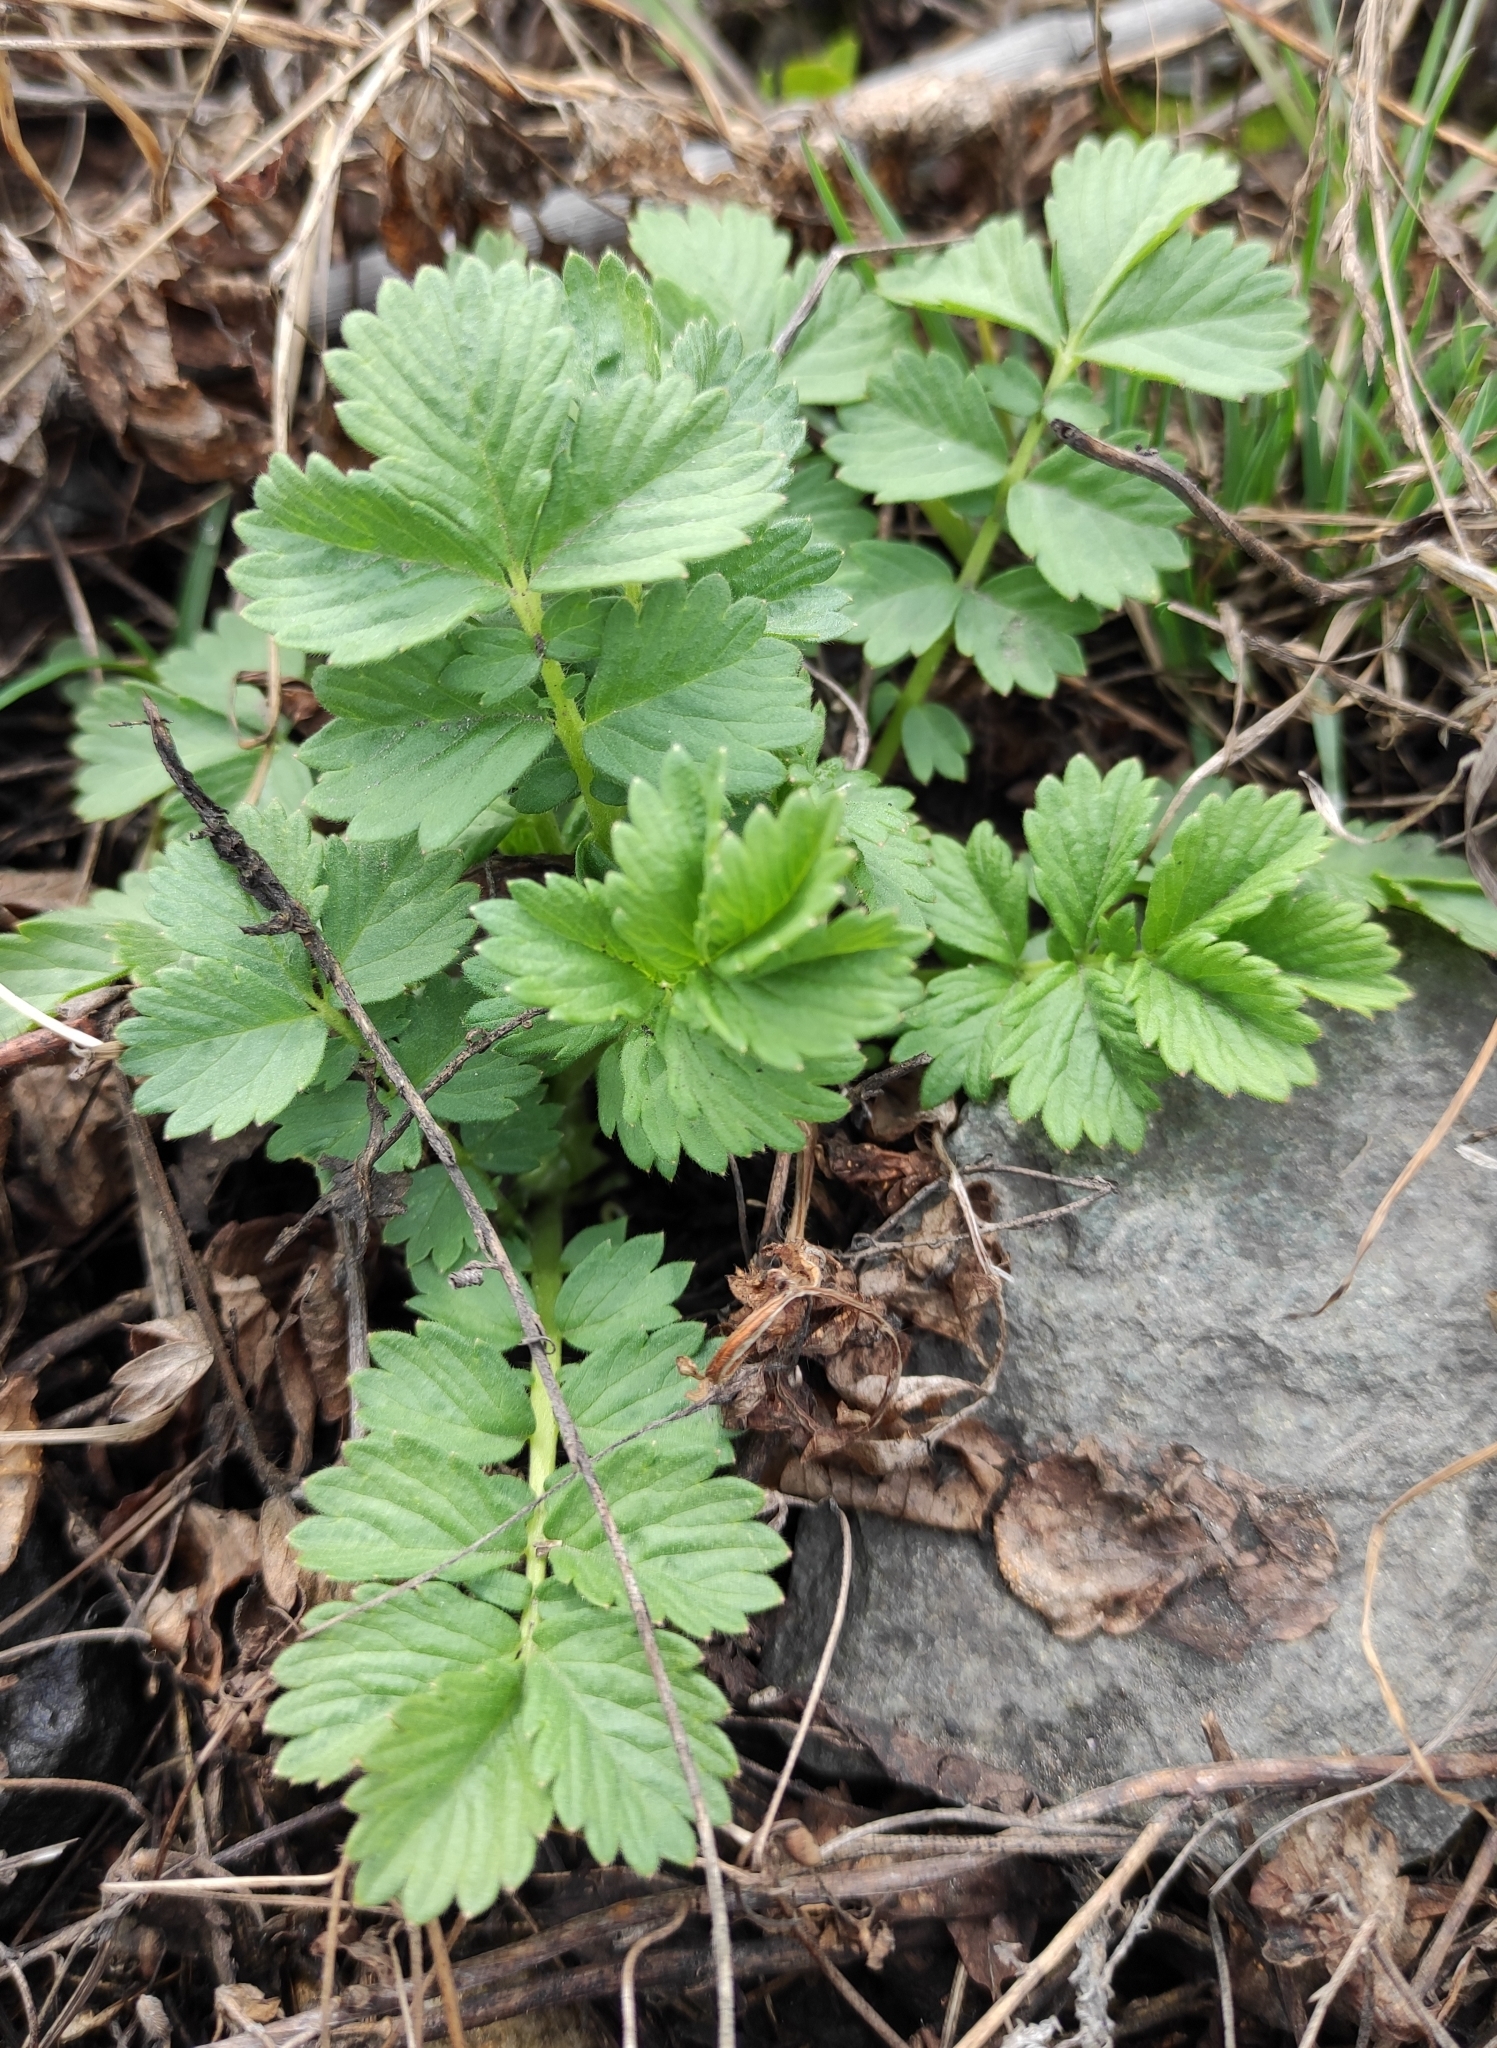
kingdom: Plantae
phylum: Tracheophyta
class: Magnoliopsida
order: Rosales
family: Rosaceae
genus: Agrimonia
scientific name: Agrimonia pilosa
